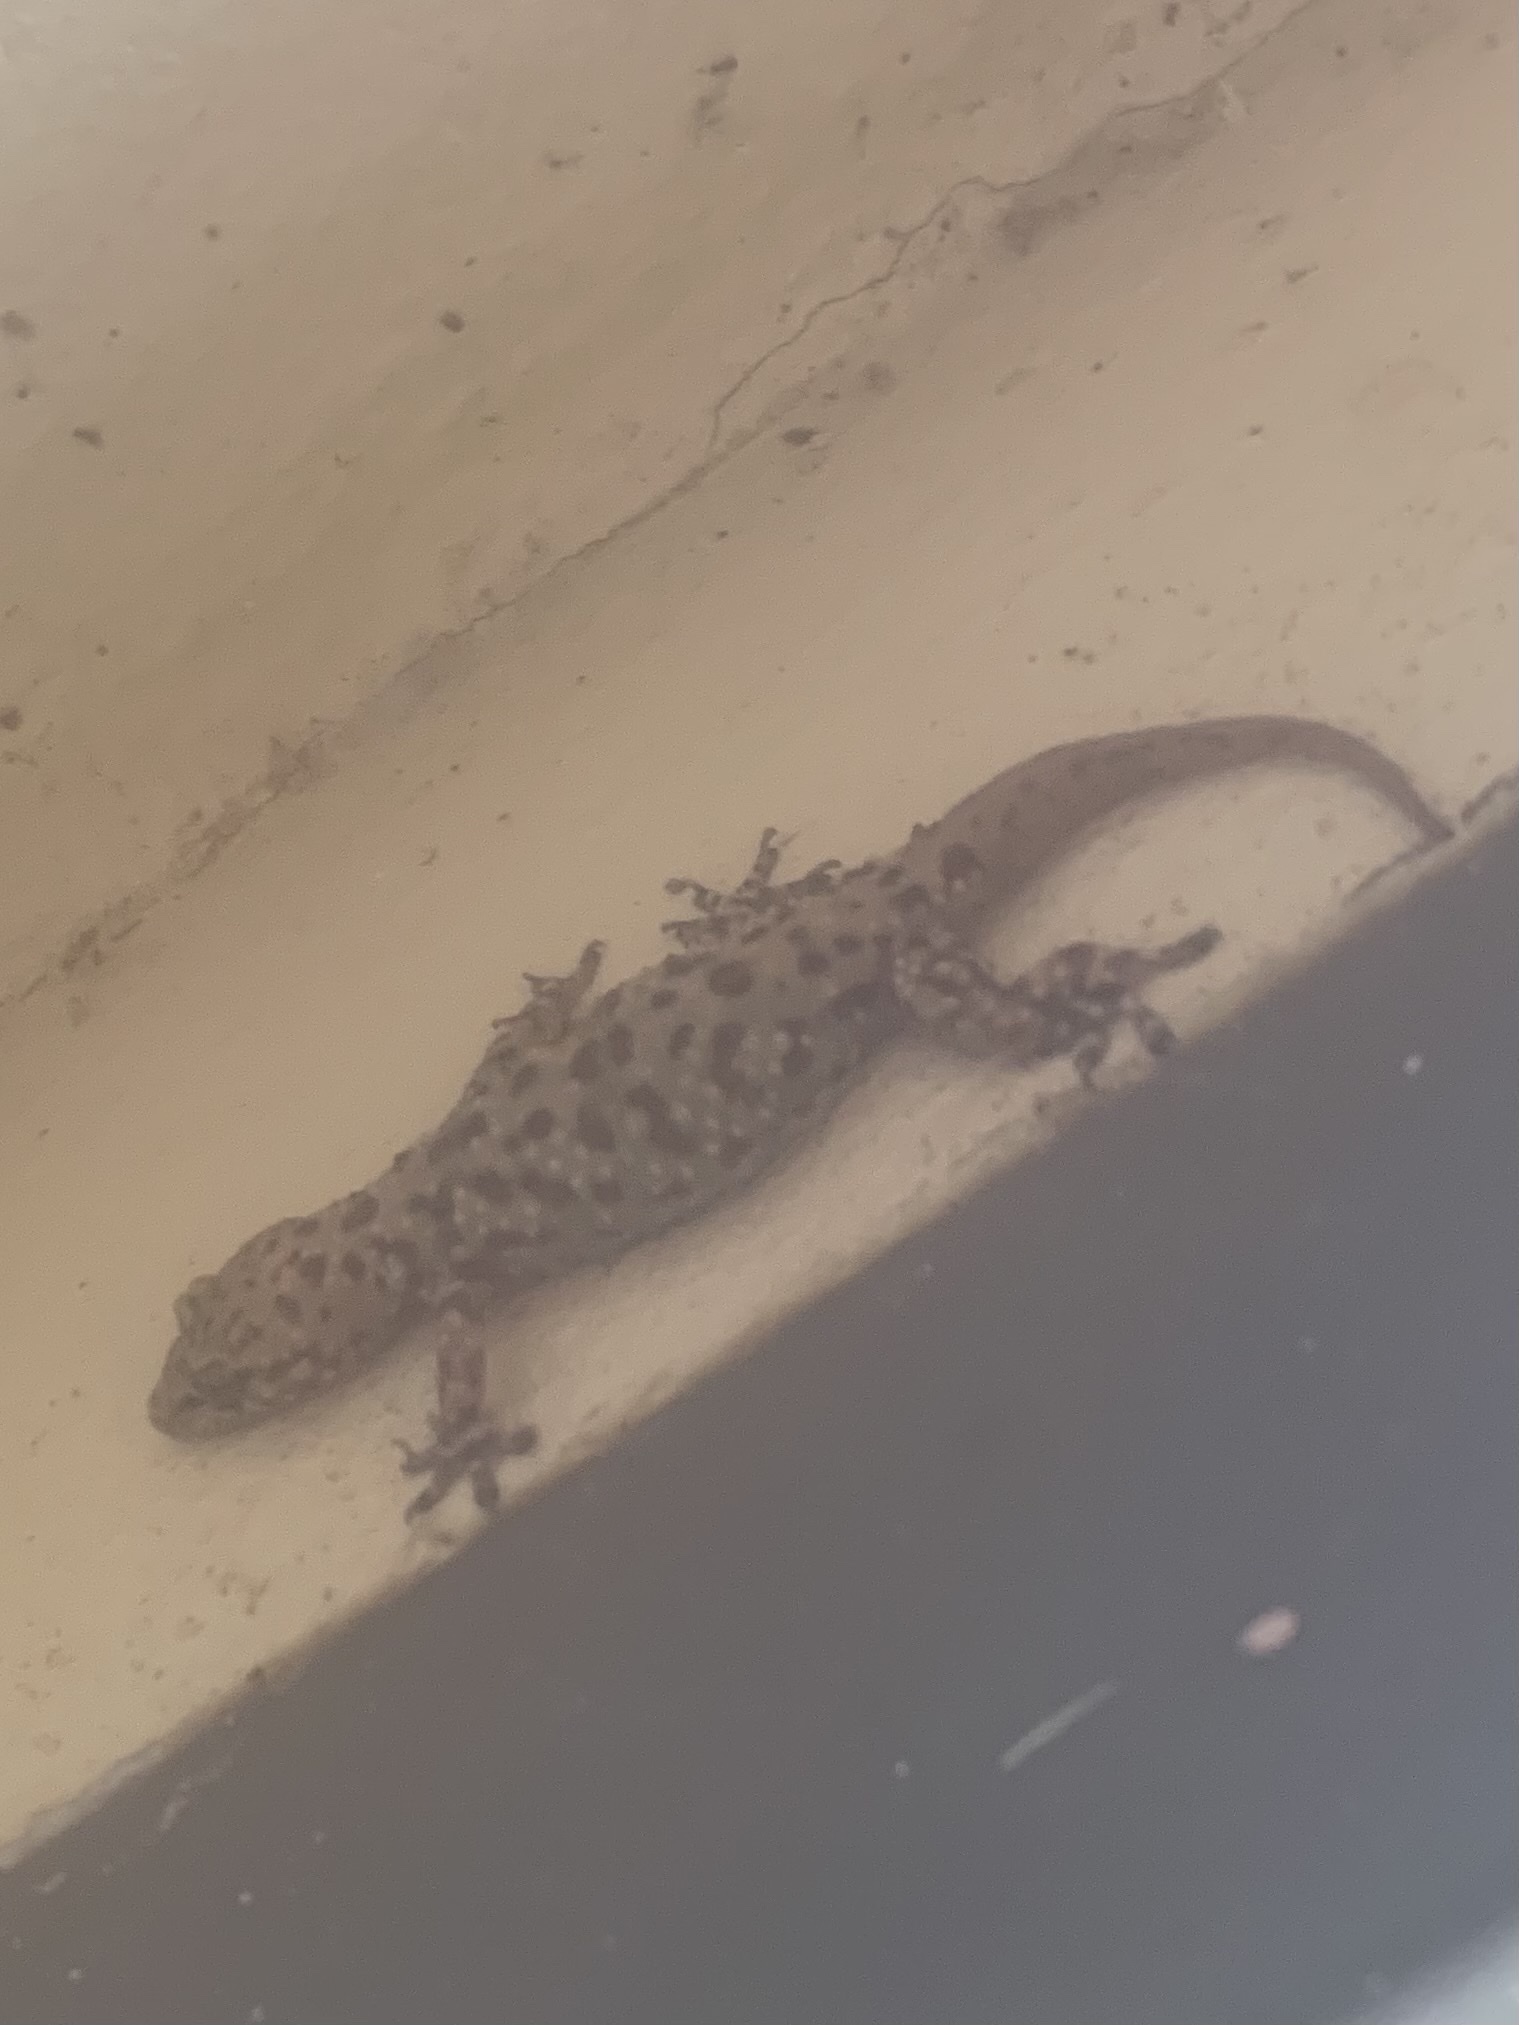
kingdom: Animalia
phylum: Chordata
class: Squamata
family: Gekkonidae
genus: Hemidactylus
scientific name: Hemidactylus turcicus
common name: Turkish gecko
